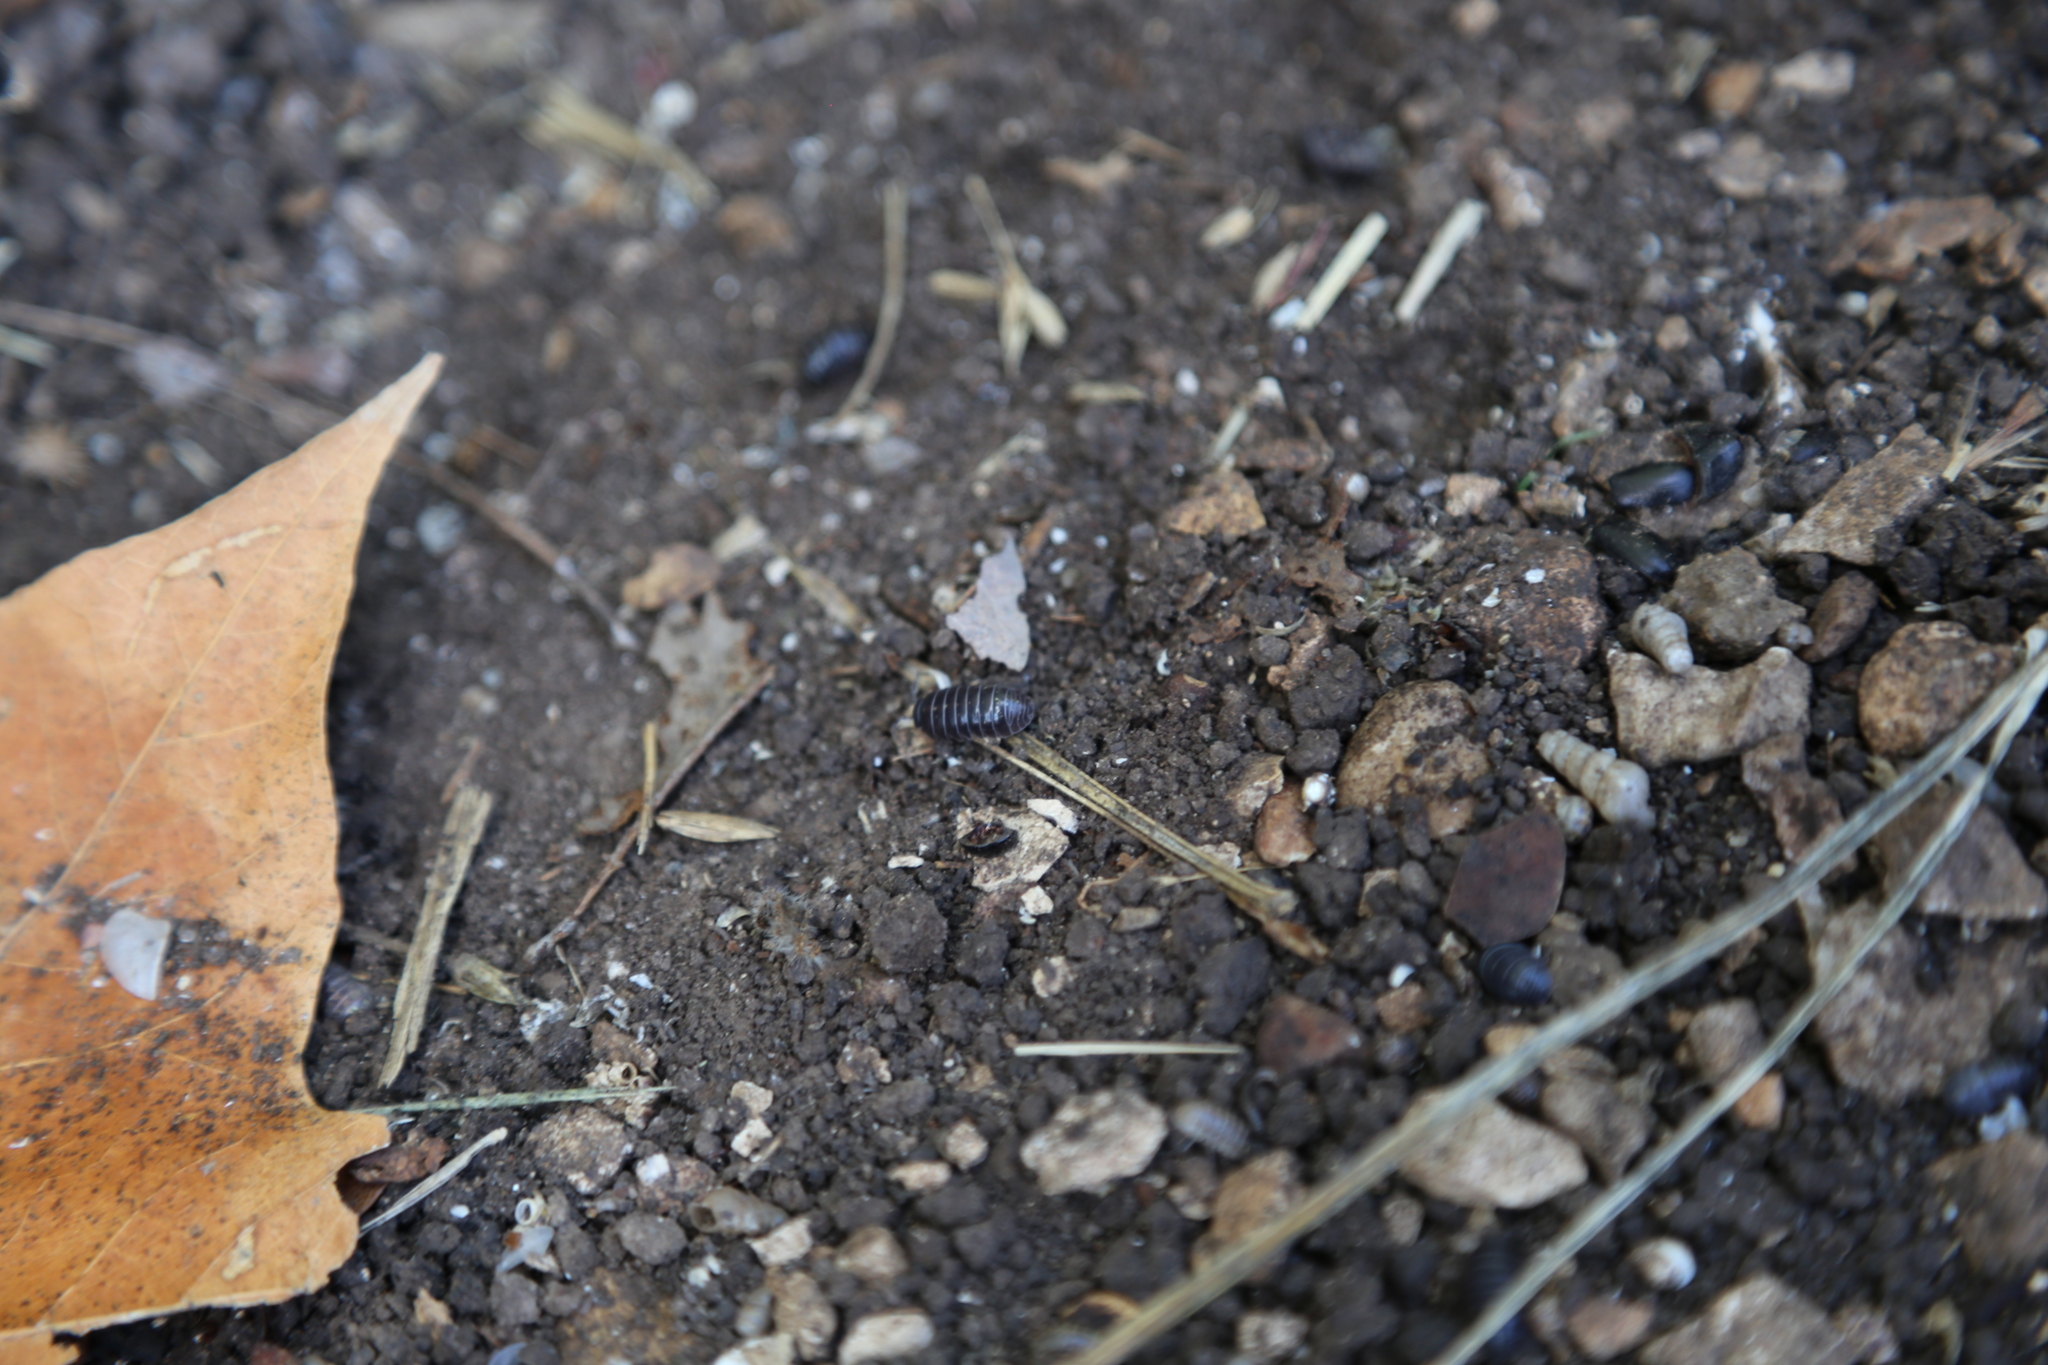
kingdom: Animalia
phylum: Arthropoda
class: Malacostraca
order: Isopoda
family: Armadillidiidae
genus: Armadillidium
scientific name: Armadillidium vulgare
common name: Common pill woodlouse
